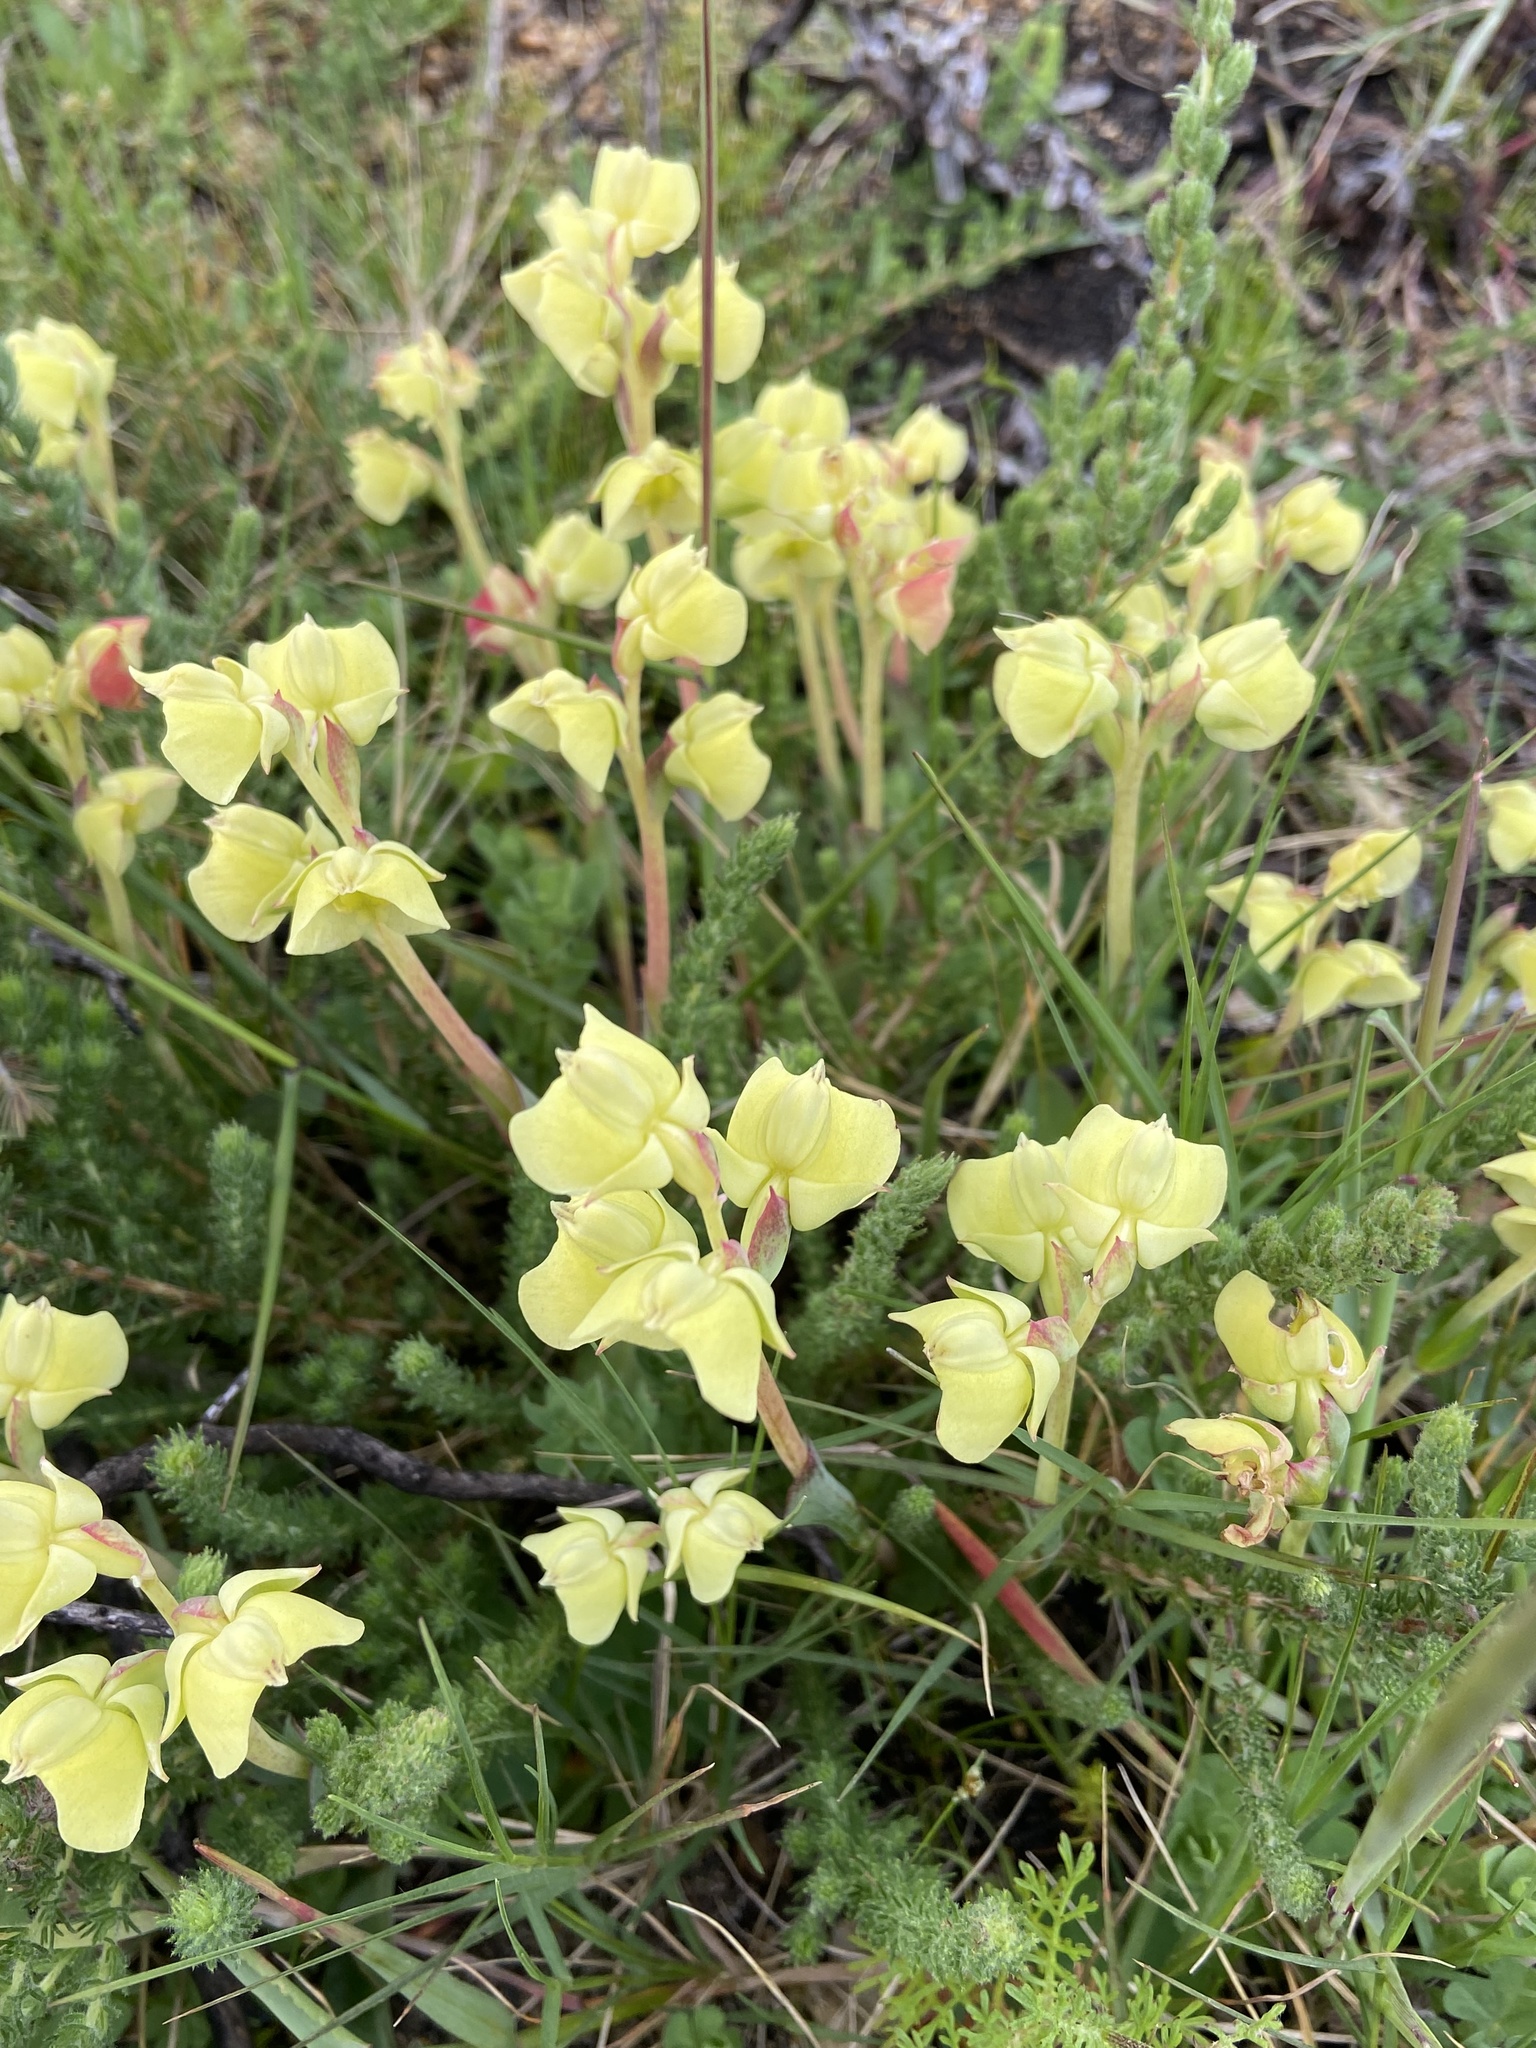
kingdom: Plantae
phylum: Tracheophyta
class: Liliopsida
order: Asparagales
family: Orchidaceae
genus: Pterygodium
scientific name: Pterygodium catholicum
